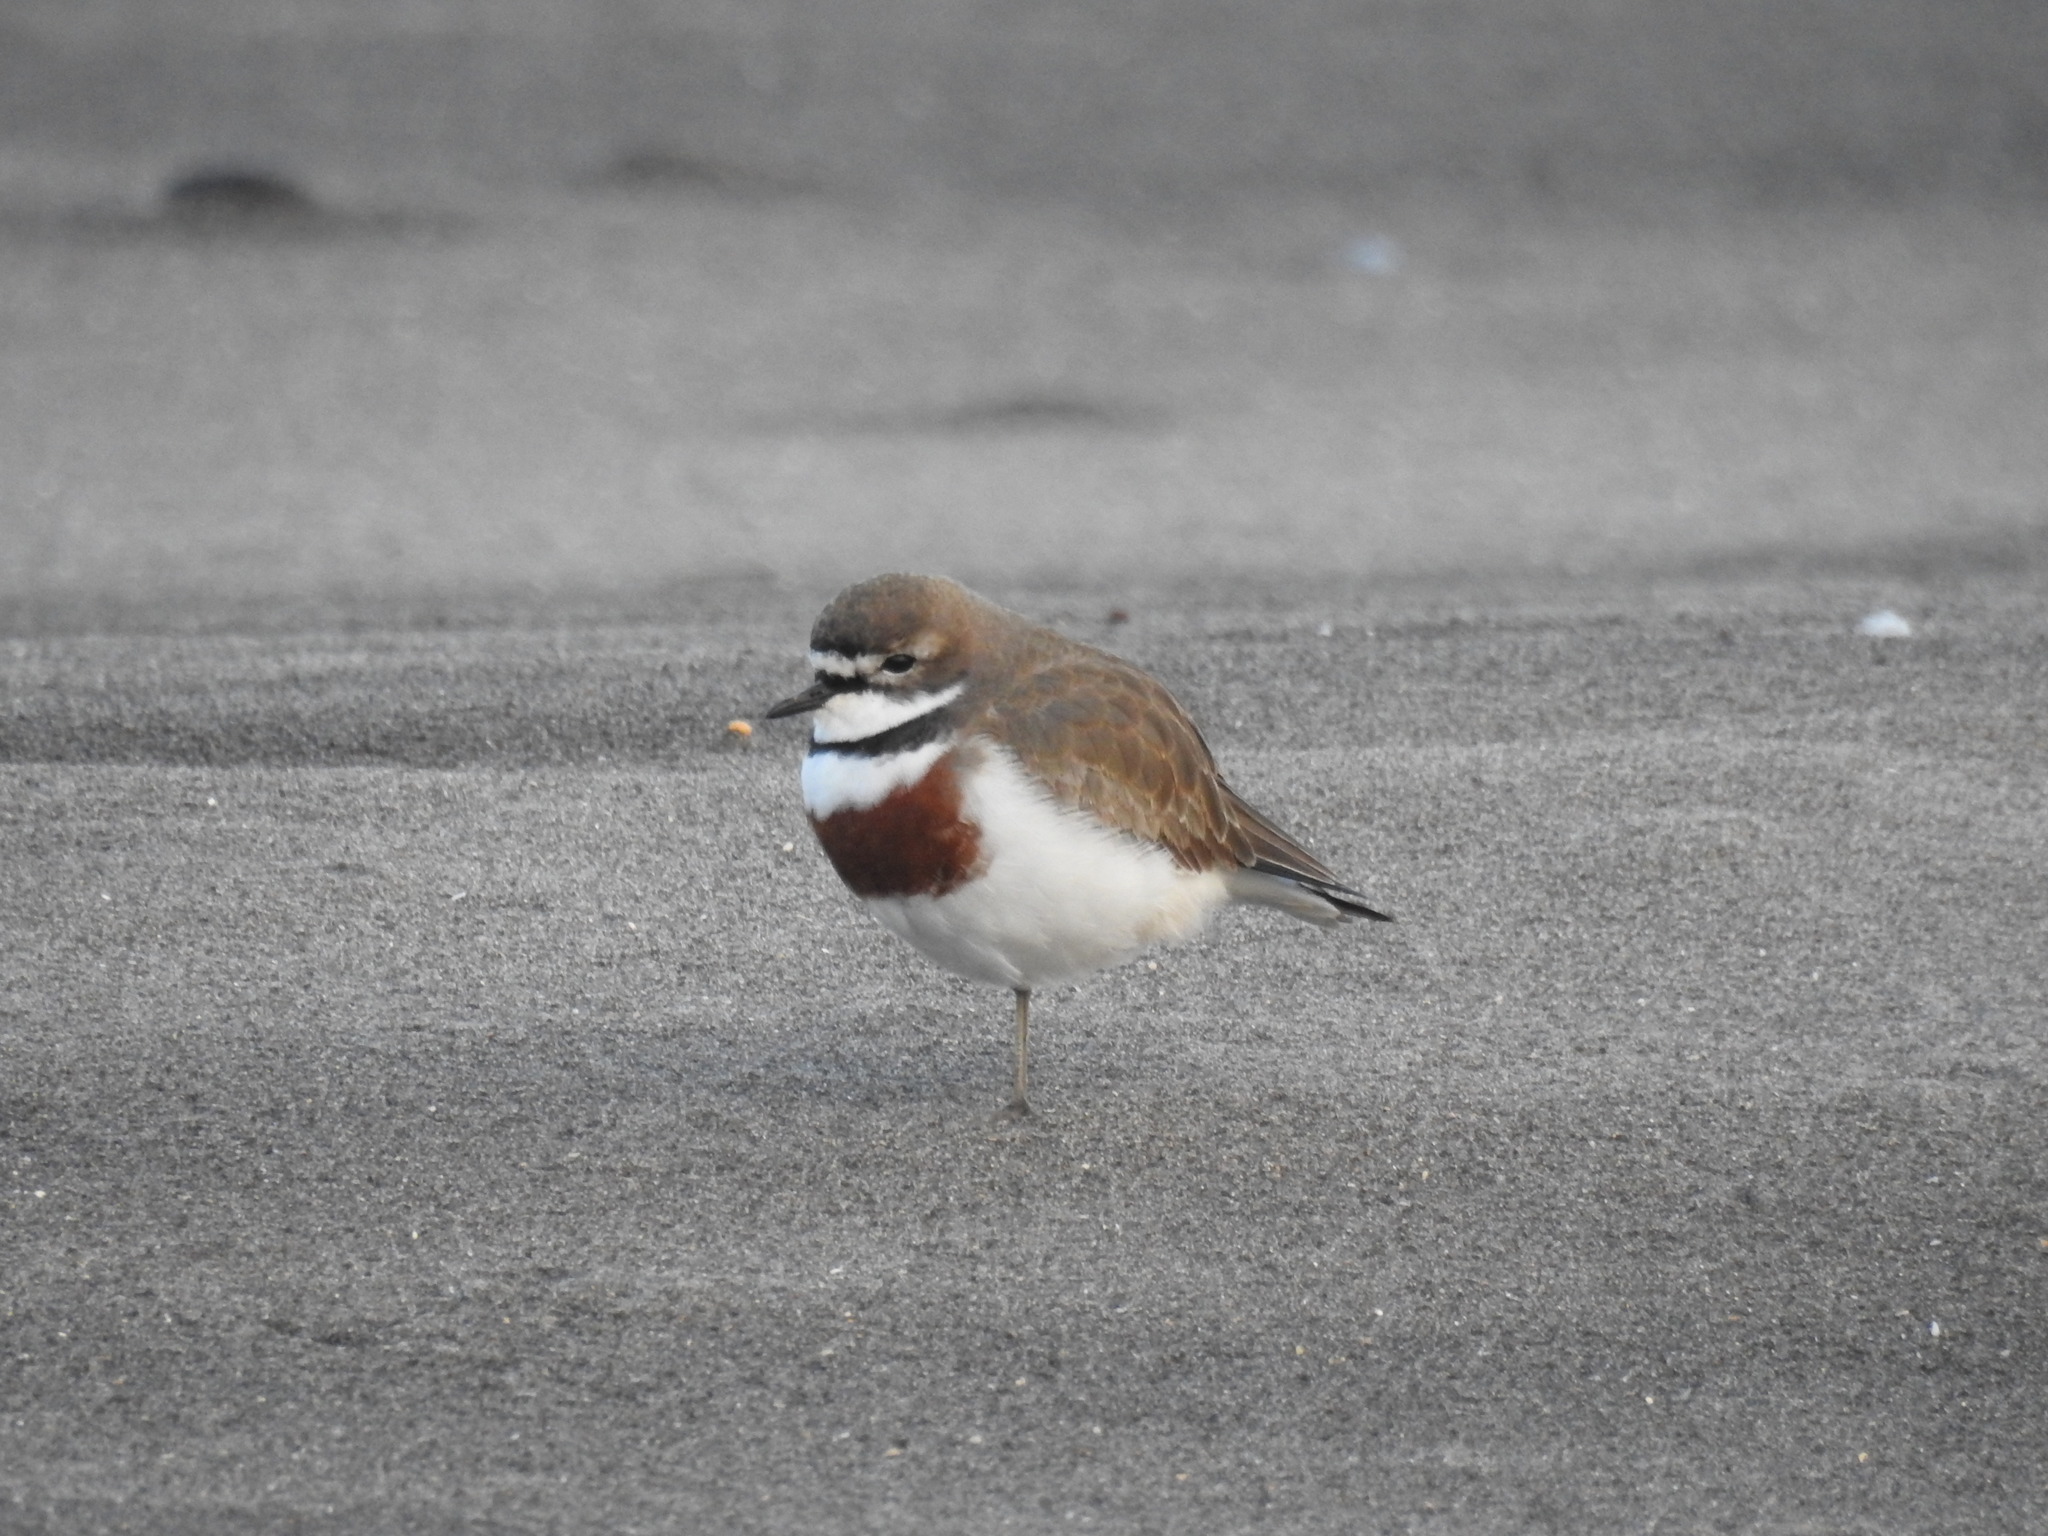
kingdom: Animalia
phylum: Chordata
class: Aves
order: Charadriiformes
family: Charadriidae
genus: Anarhynchus
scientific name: Anarhynchus
